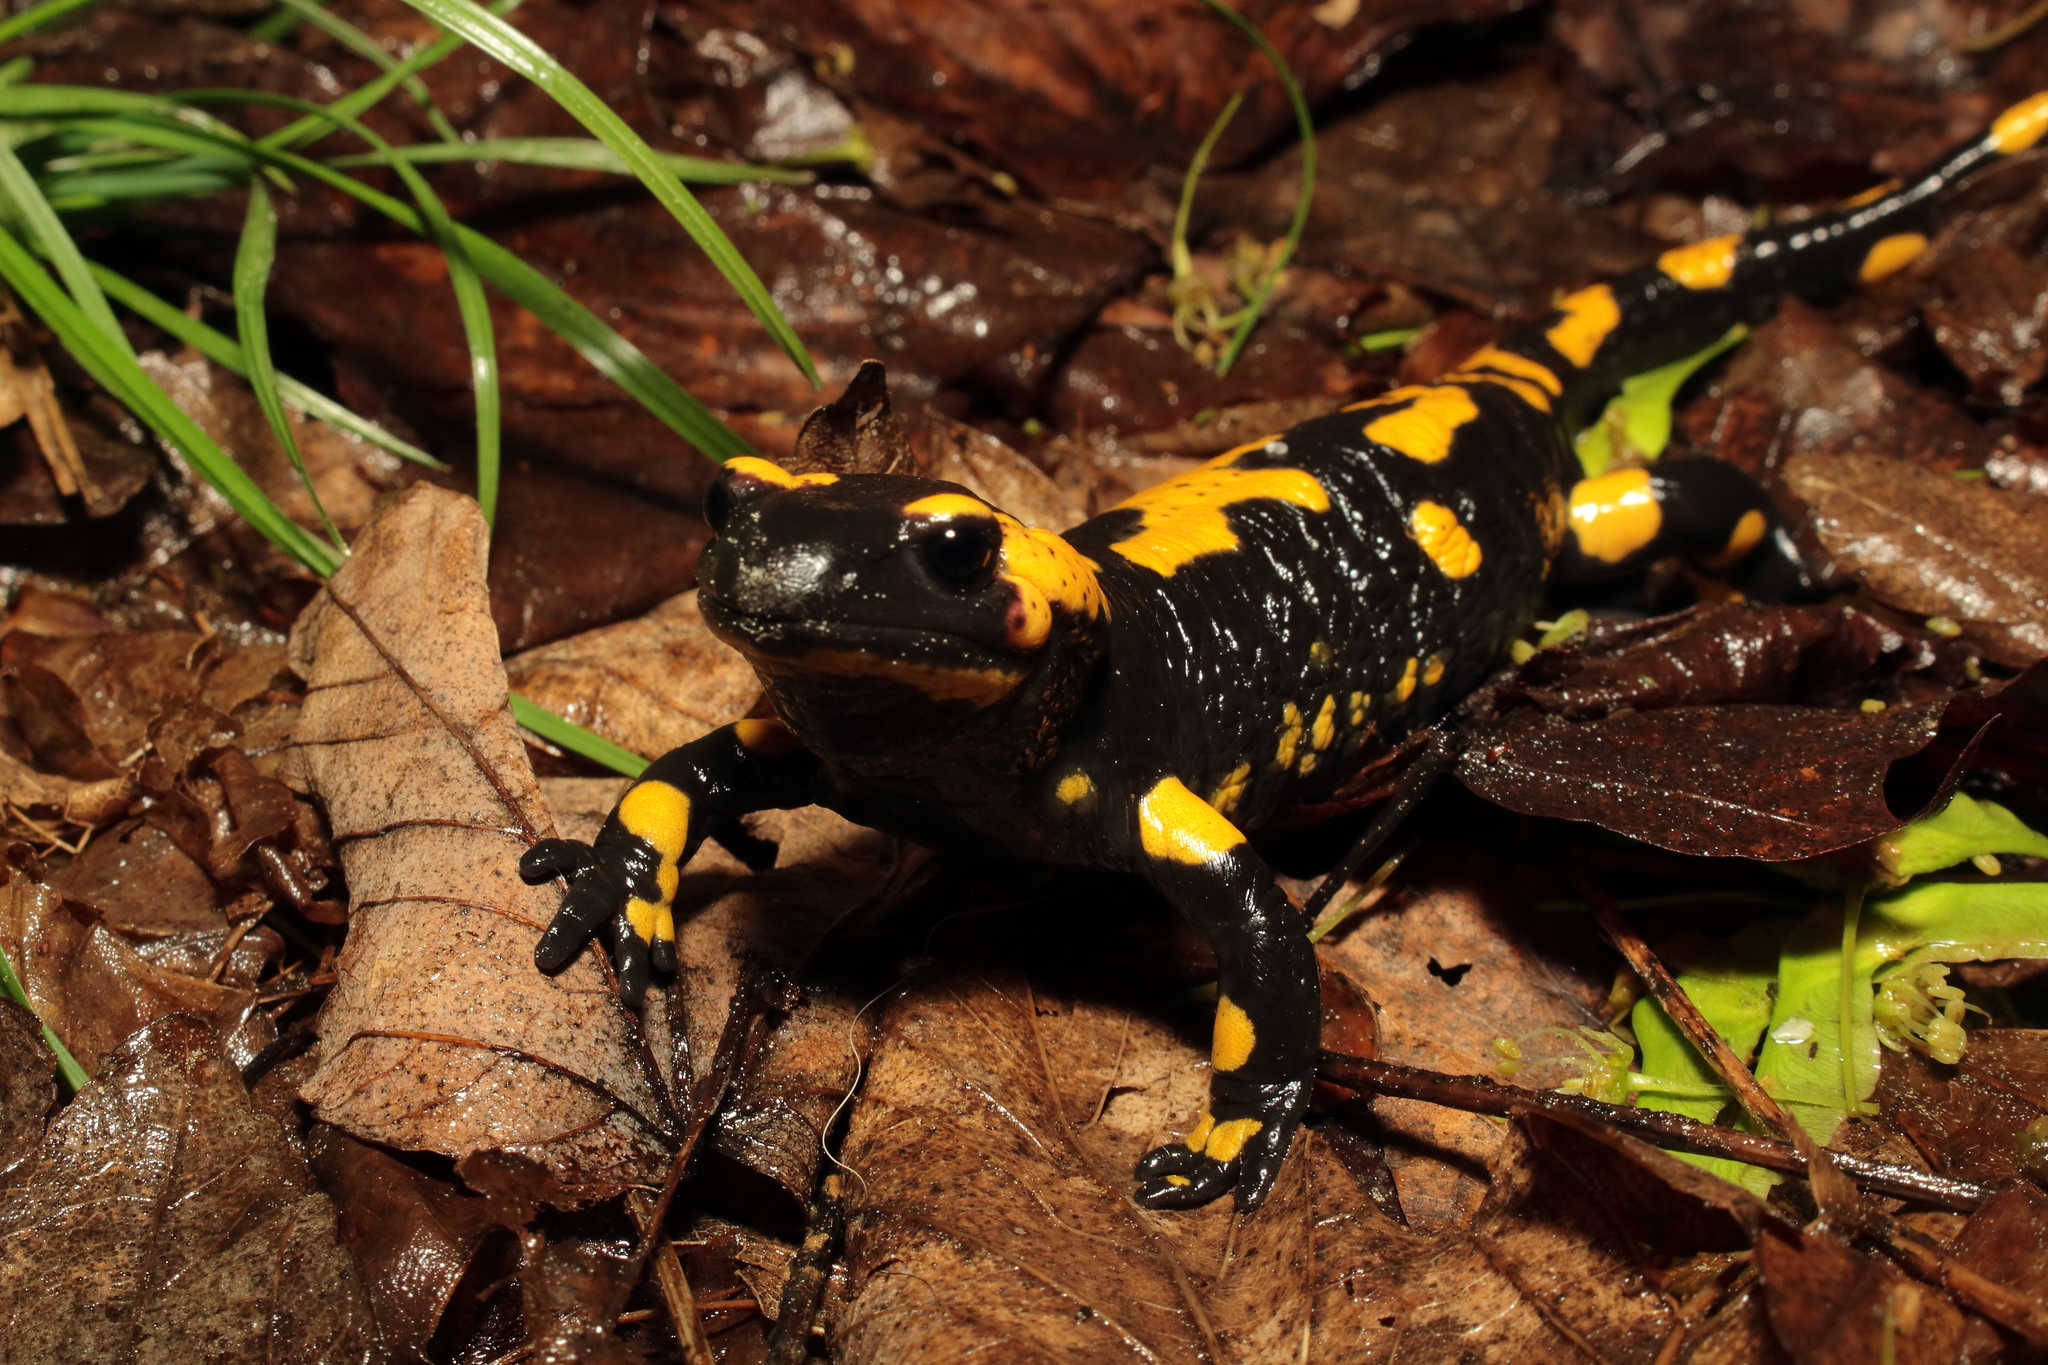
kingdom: Animalia
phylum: Chordata
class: Amphibia
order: Caudata
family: Salamandridae
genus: Salamandra
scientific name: Salamandra salamandra
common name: Fire salamander
